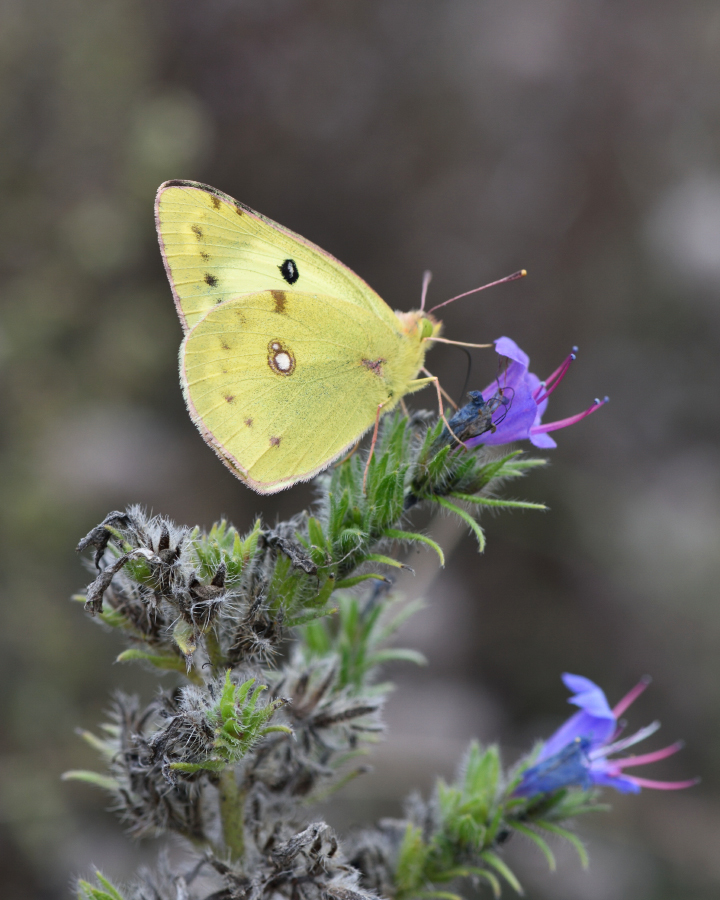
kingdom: Animalia
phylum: Arthropoda
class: Insecta
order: Lepidoptera
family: Pieridae
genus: Colias
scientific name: Colias hyale
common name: Pale clouded yellow
